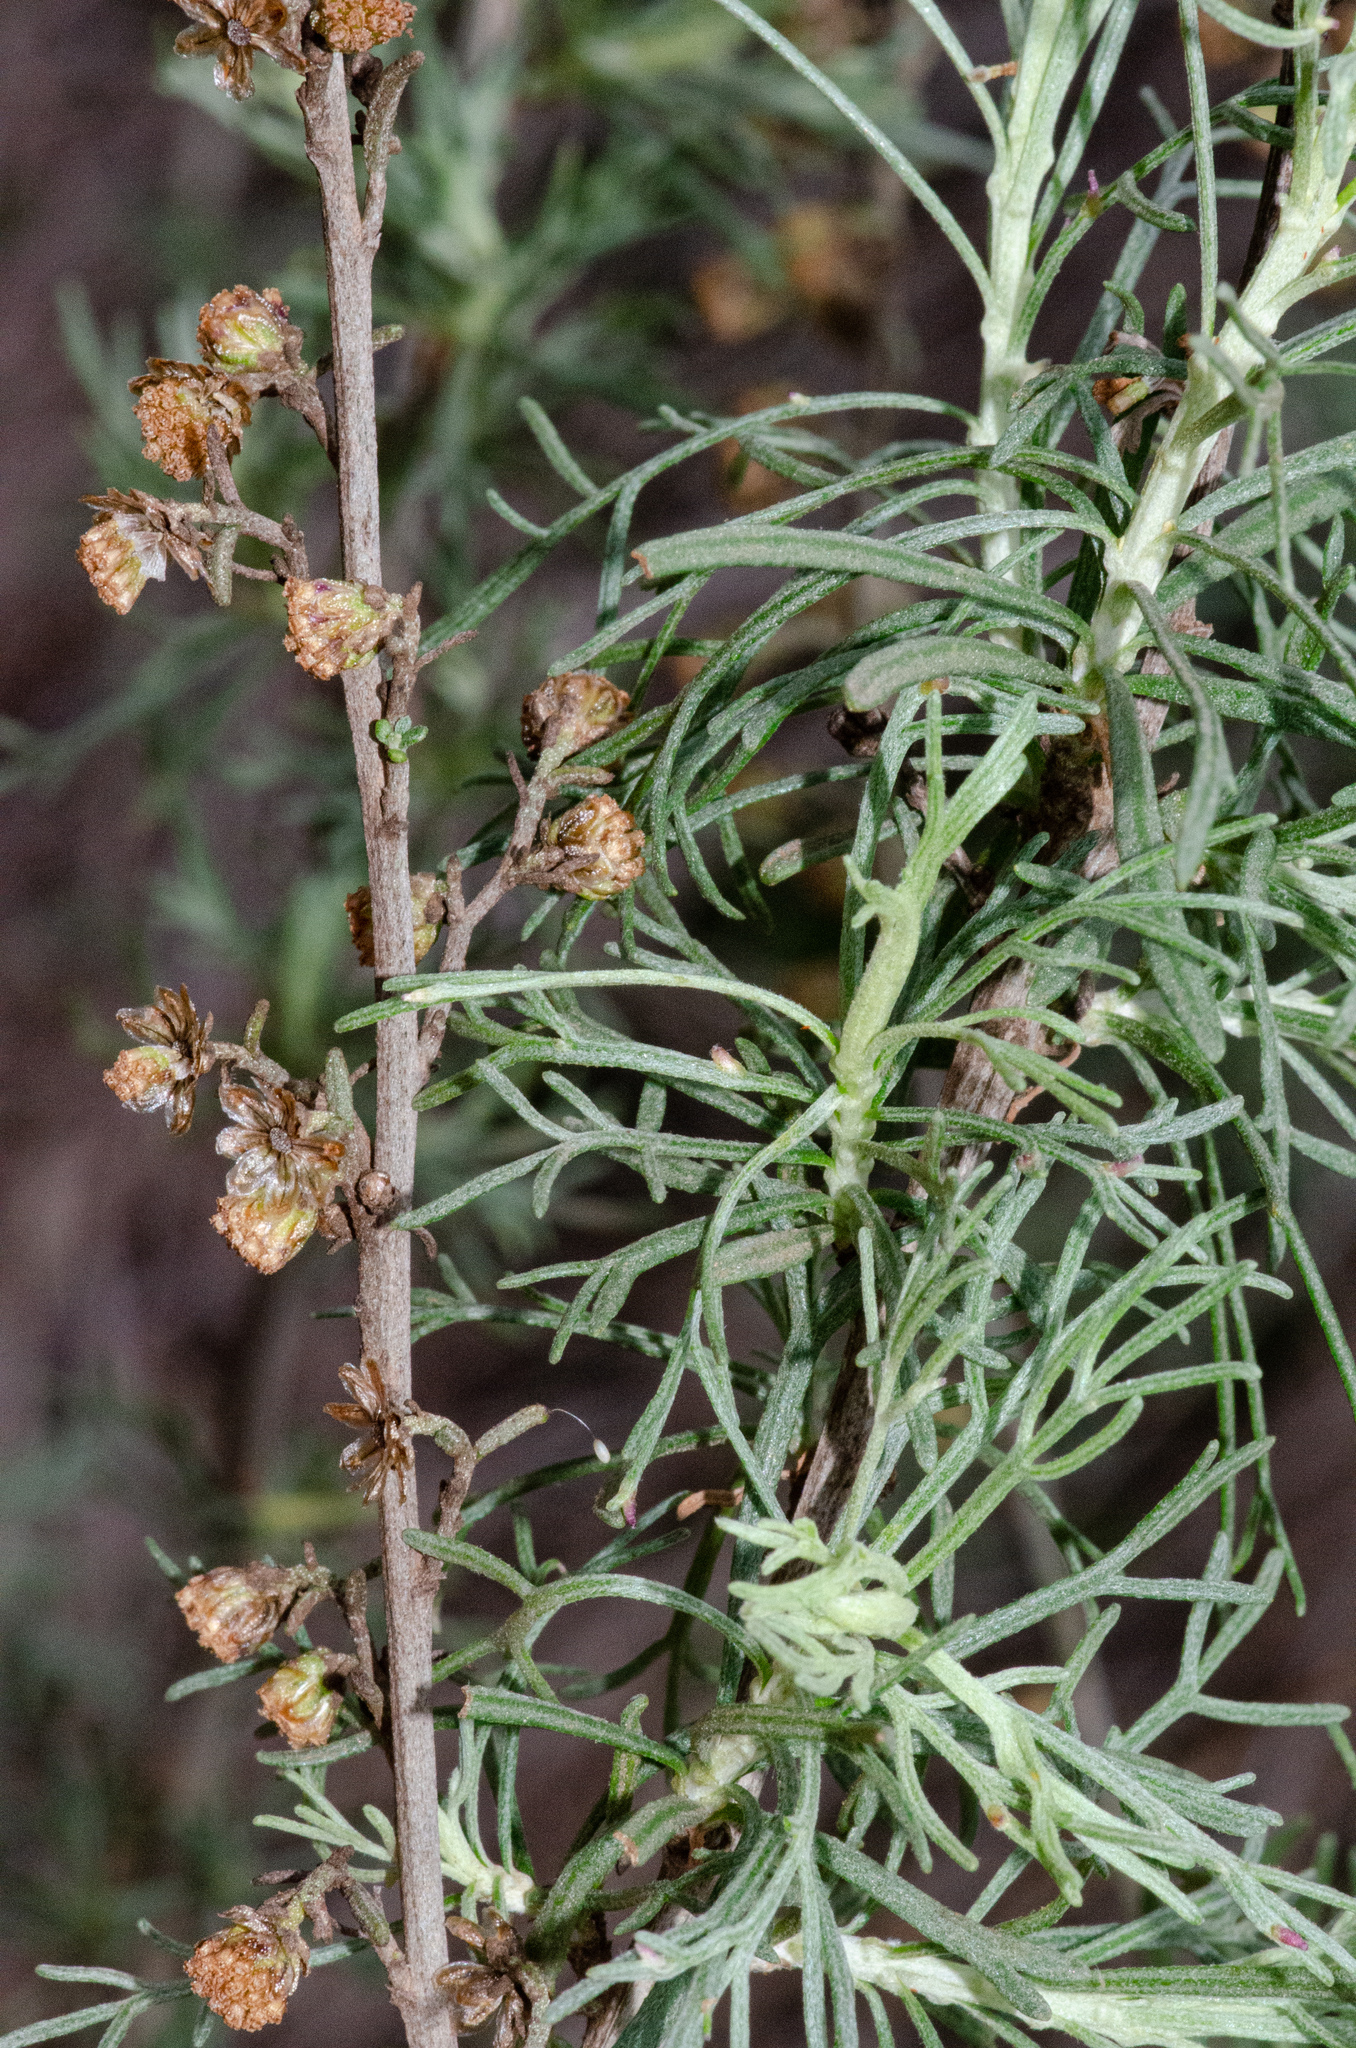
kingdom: Plantae
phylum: Tracheophyta
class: Magnoliopsida
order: Asterales
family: Asteraceae
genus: Artemisia
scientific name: Artemisia californica
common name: California sagebrush
